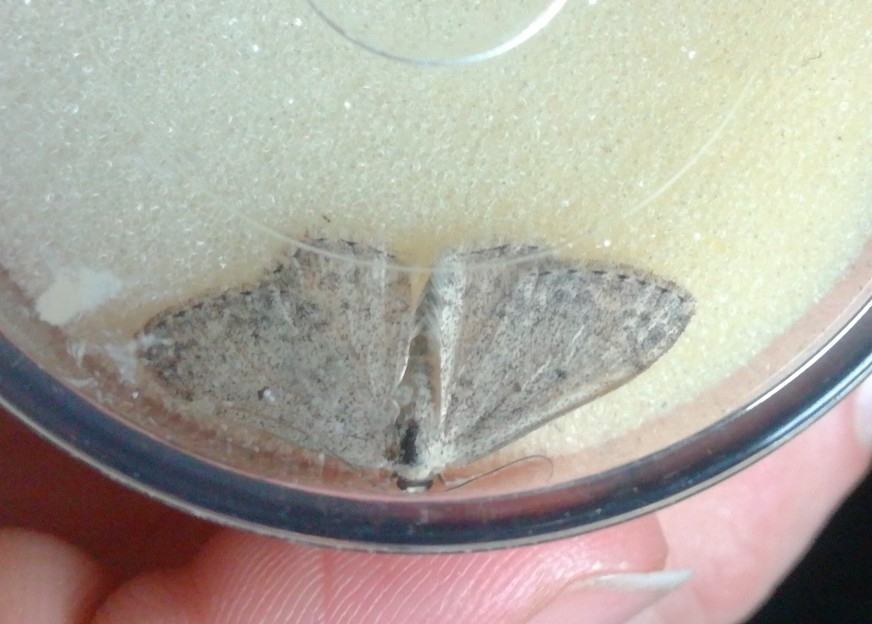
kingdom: Animalia
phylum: Arthropoda
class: Insecta
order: Lepidoptera
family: Geometridae
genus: Scopula
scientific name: Scopula marginepunctata
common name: Mullein wave
